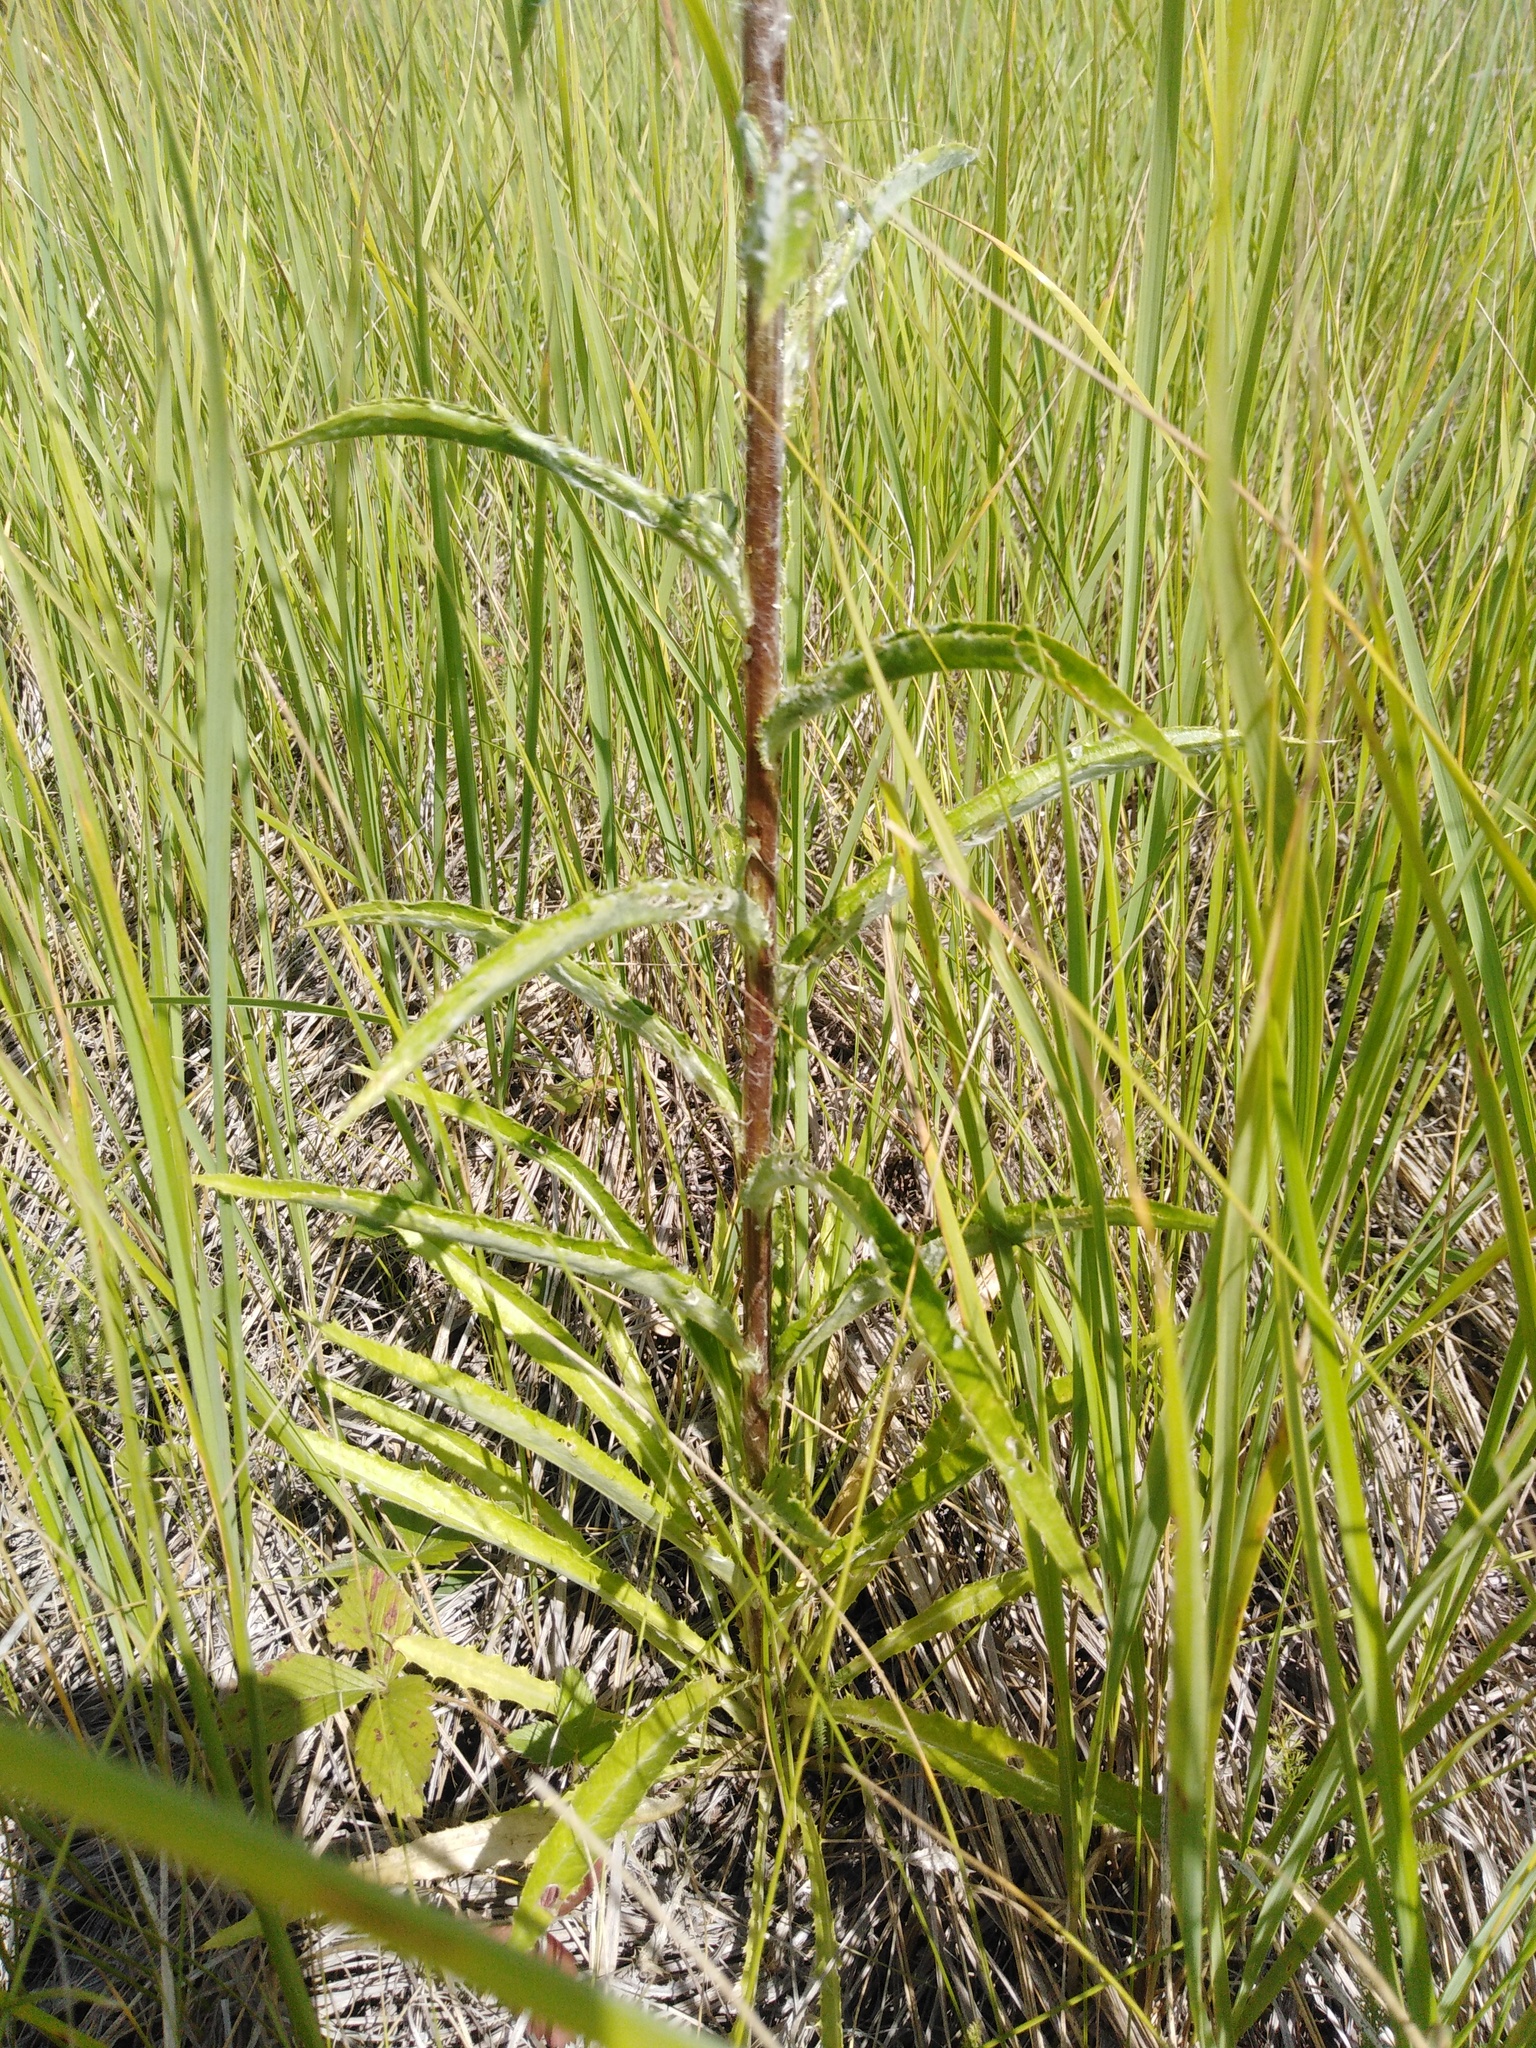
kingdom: Plantae
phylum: Tracheophyta
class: Magnoliopsida
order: Asterales
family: Asteraceae
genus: Carlina
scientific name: Carlina biebersteinii
